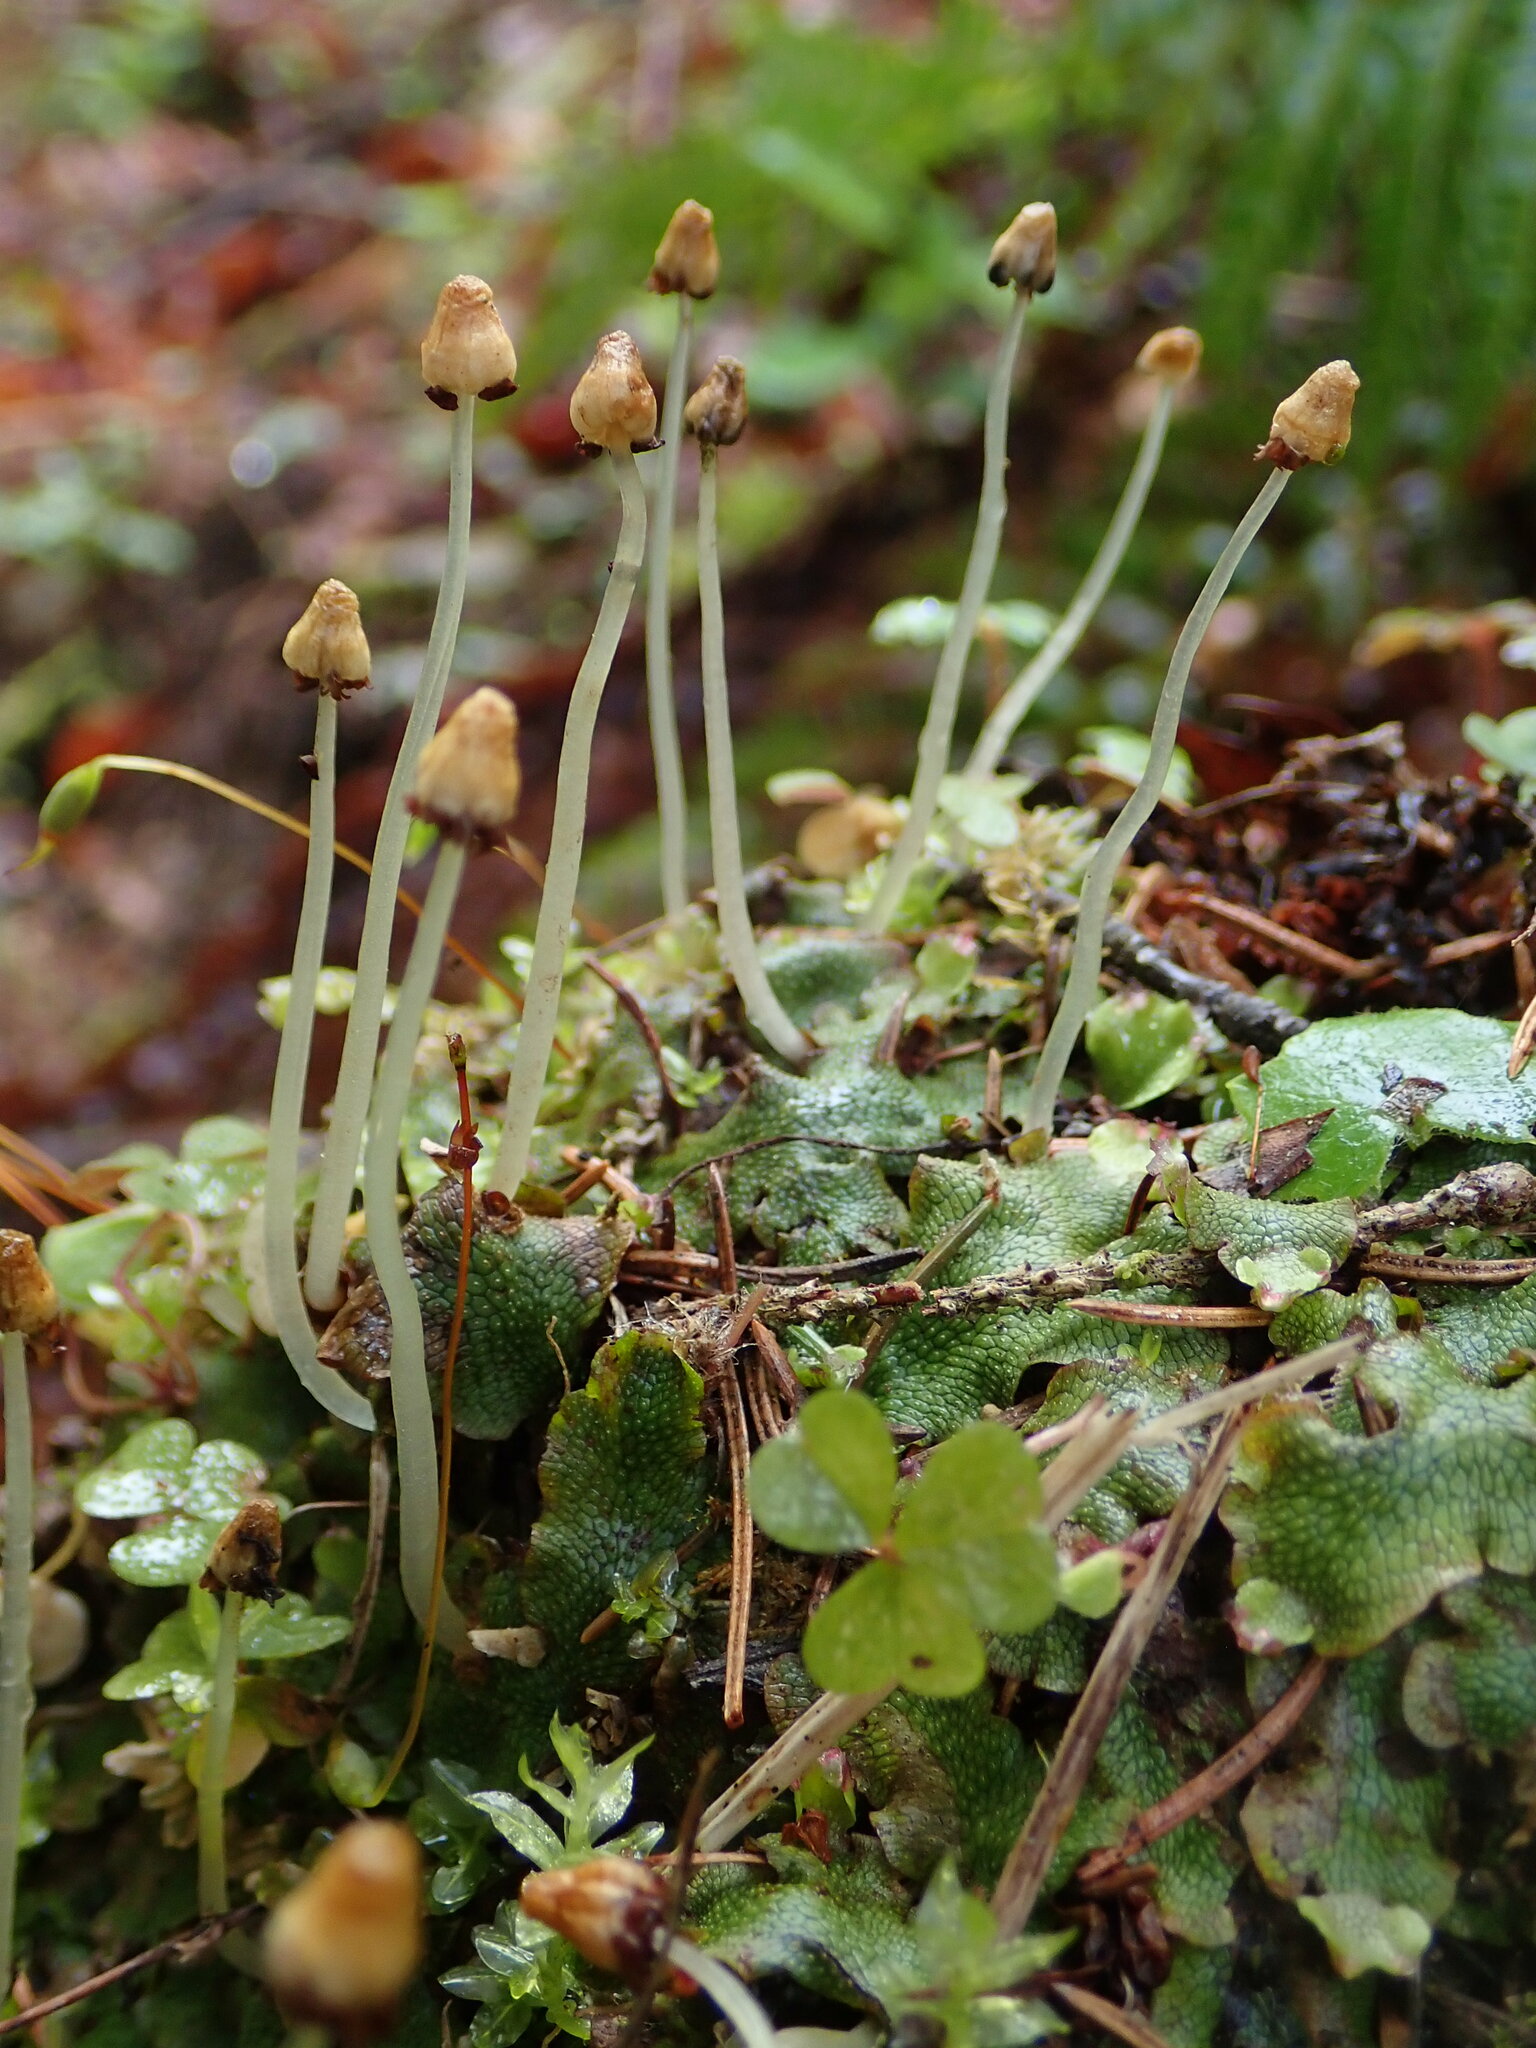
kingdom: Plantae
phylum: Marchantiophyta
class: Marchantiopsida
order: Marchantiales
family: Conocephalaceae
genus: Conocephalum
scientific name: Conocephalum salebrosum
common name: Cat-tongue liverwort
